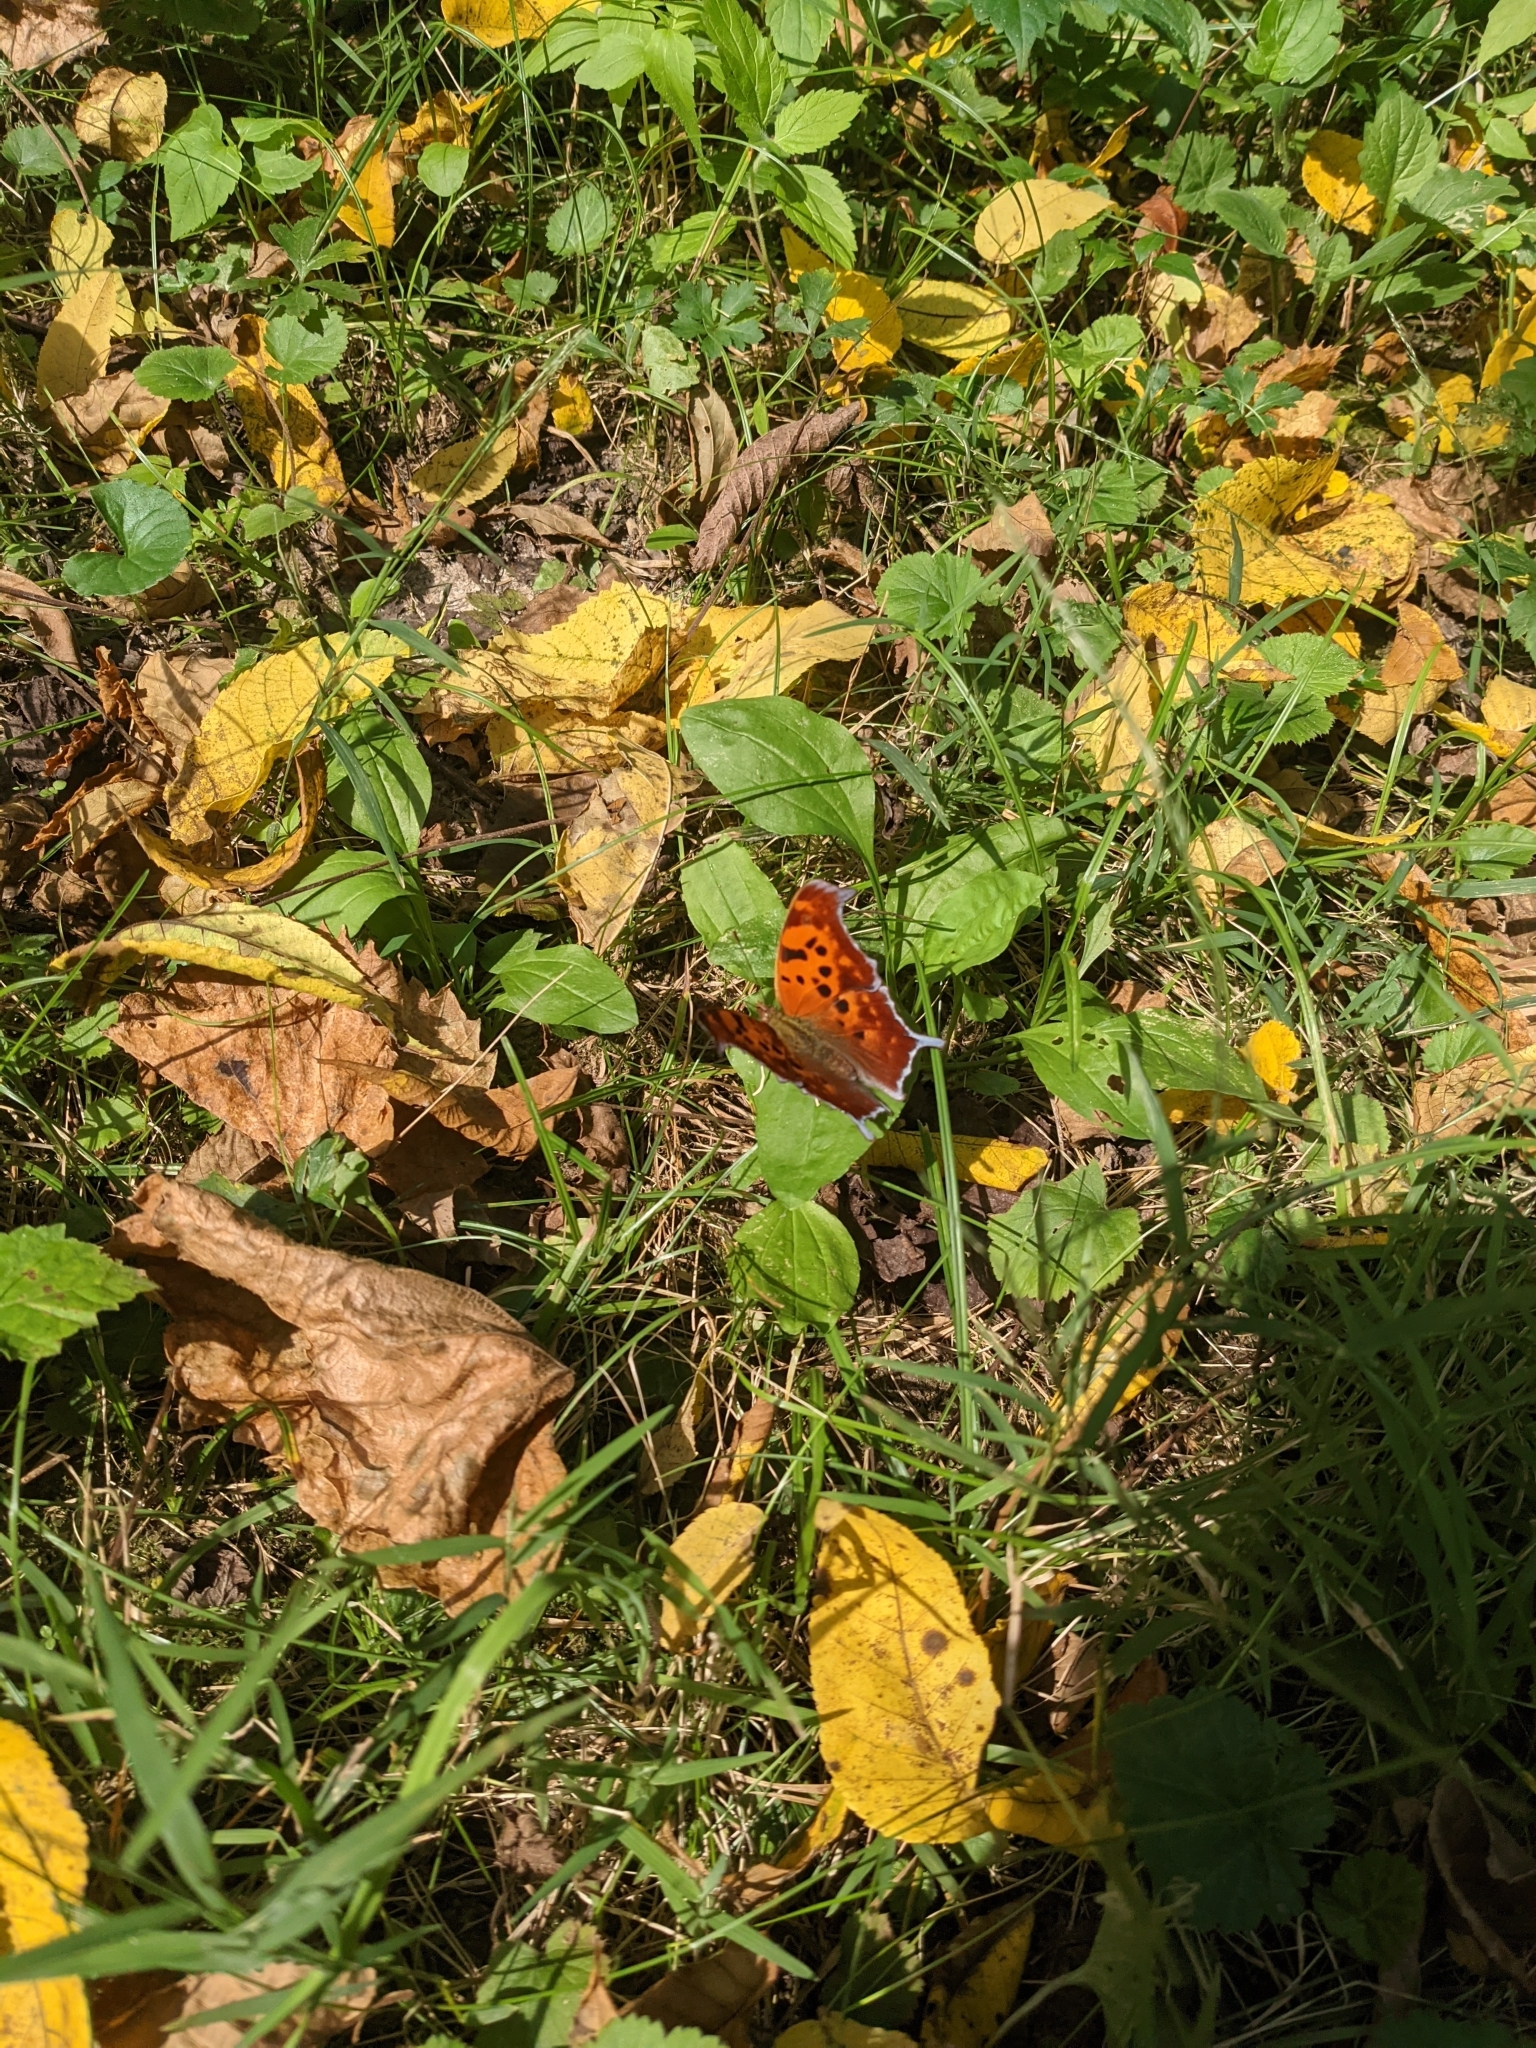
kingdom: Animalia
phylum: Arthropoda
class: Insecta
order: Lepidoptera
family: Nymphalidae
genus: Polygonia
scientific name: Polygonia interrogationis
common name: Question mark
